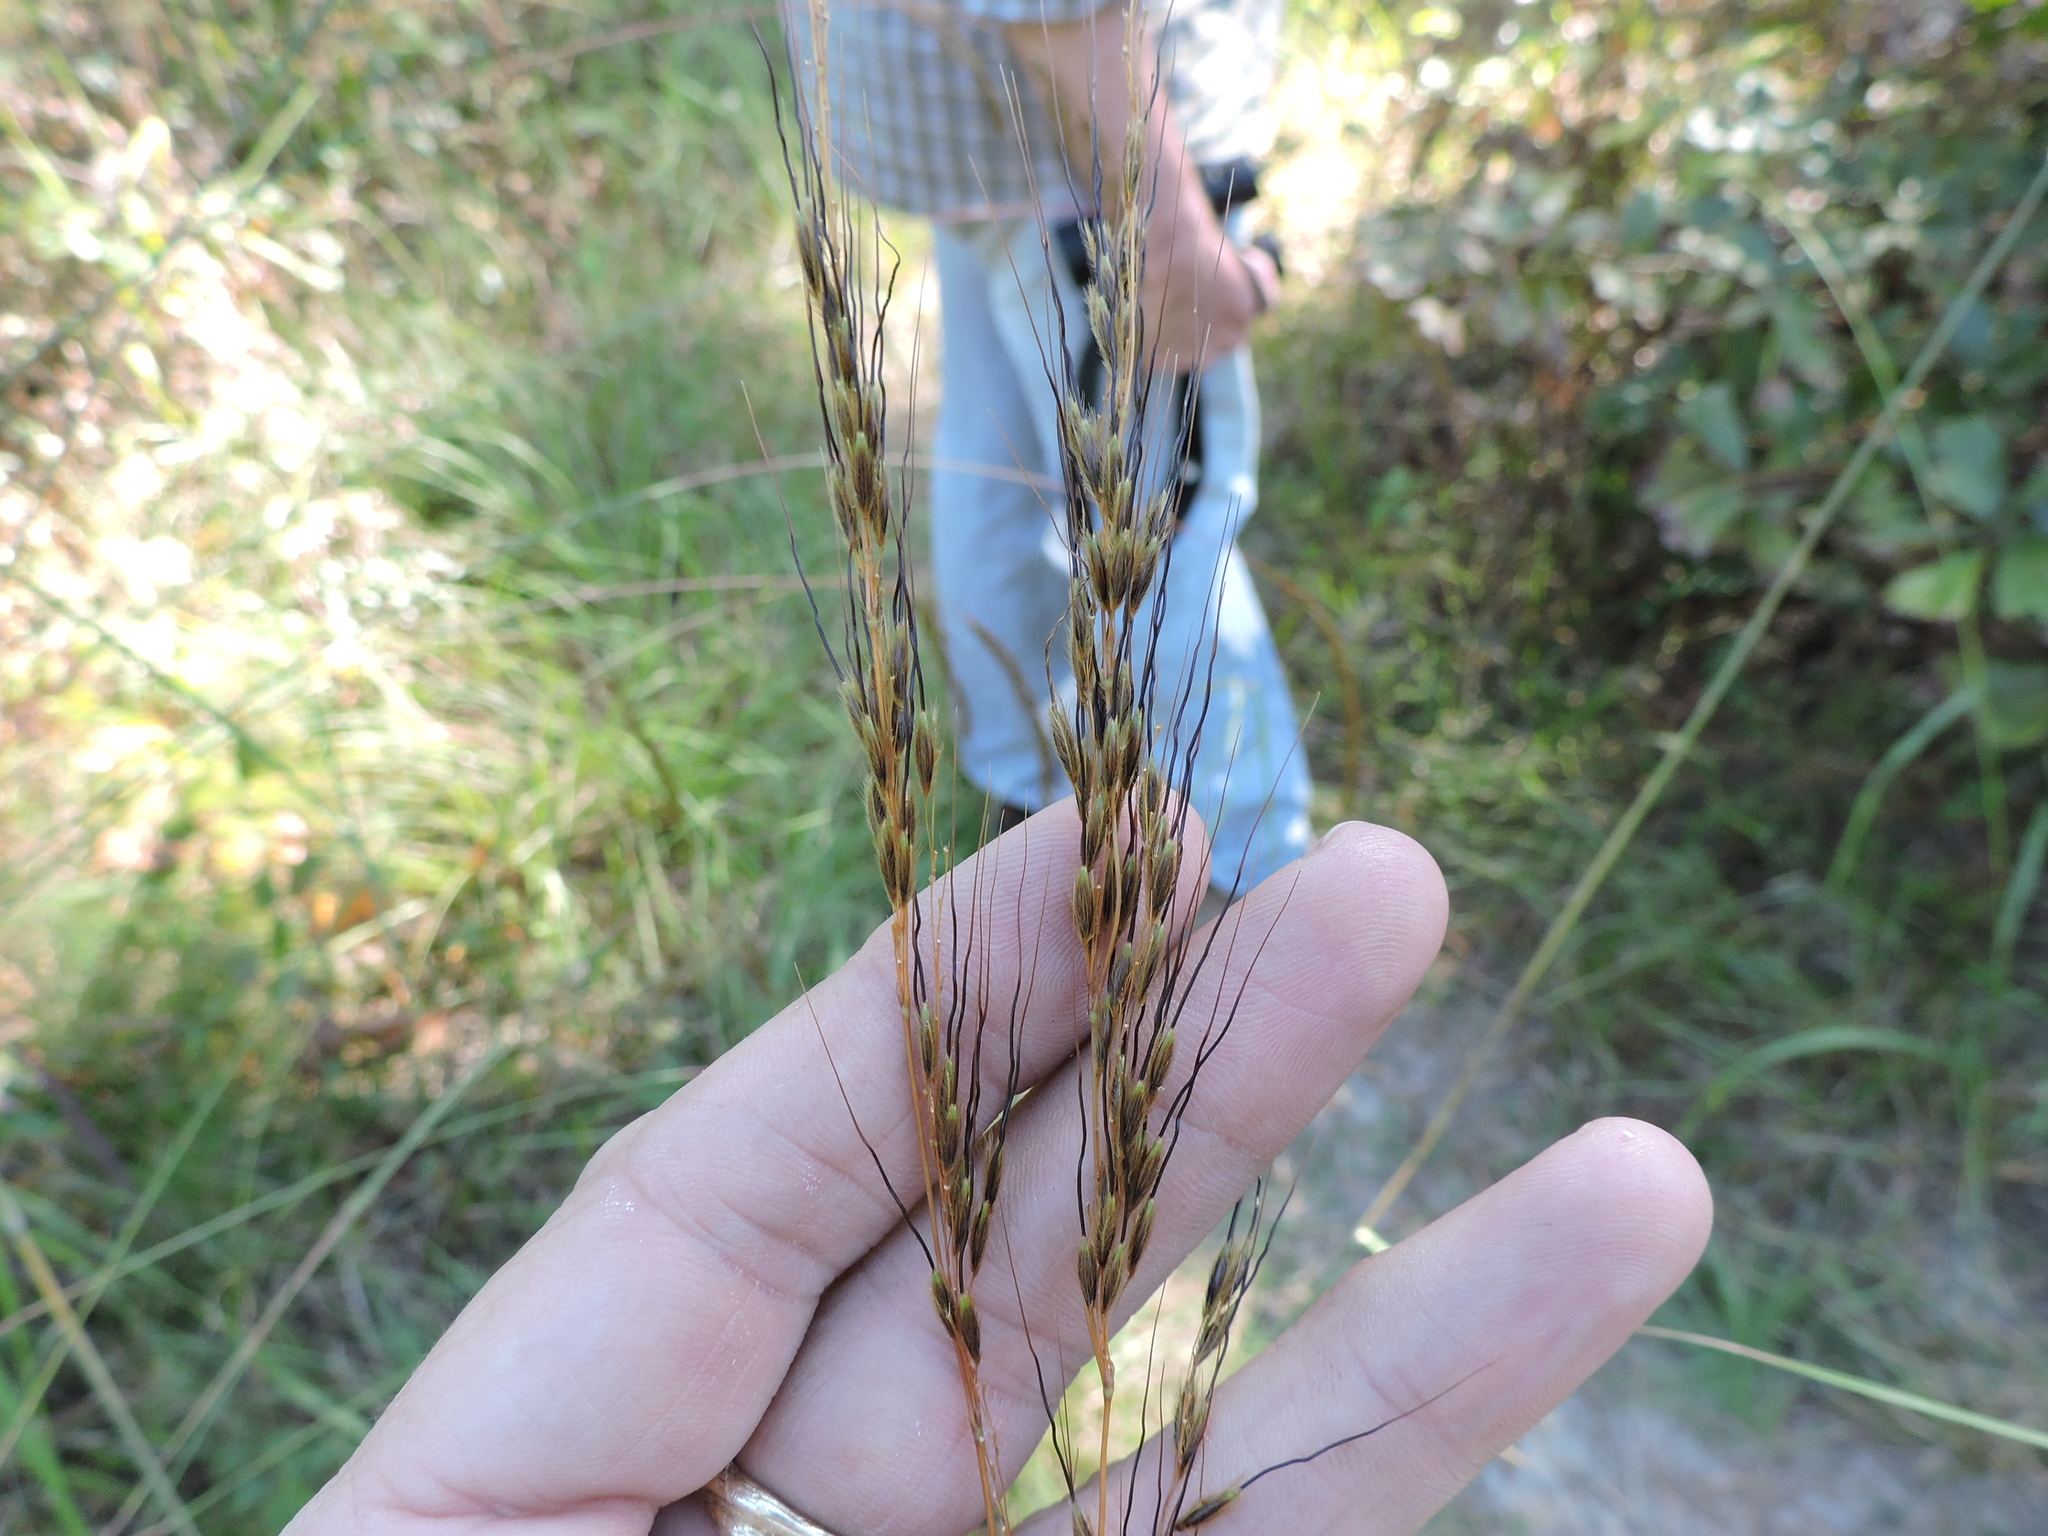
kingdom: Plantae
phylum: Tracheophyta
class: Liliopsida
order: Poales
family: Poaceae
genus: Sorghastrum
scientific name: Sorghastrum elliottii
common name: Slender indian grass
